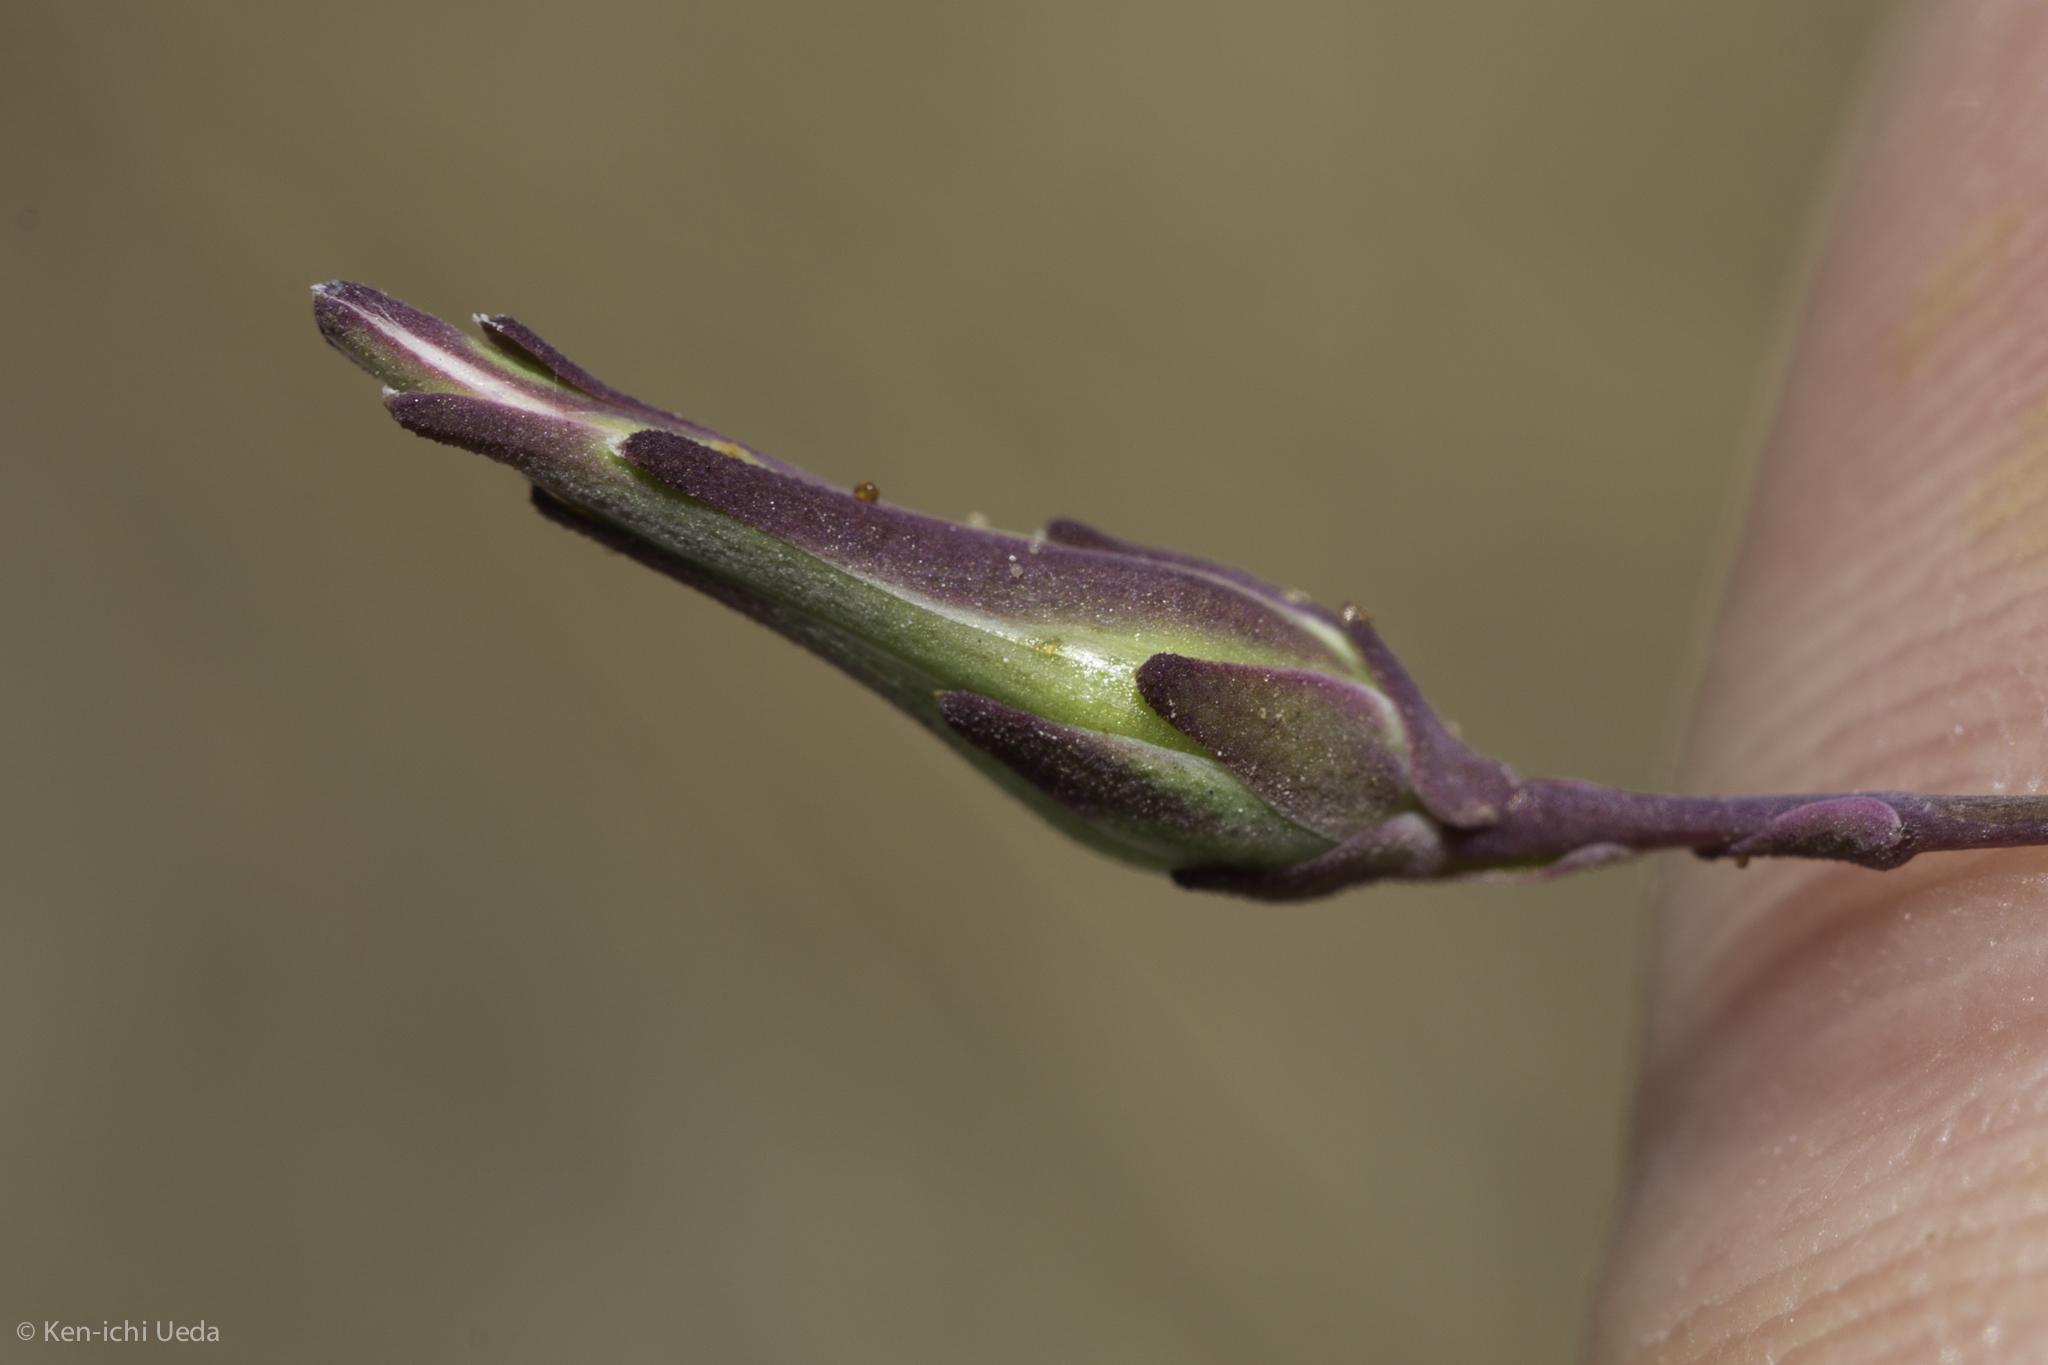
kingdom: Plantae
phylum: Tracheophyta
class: Magnoliopsida
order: Asterales
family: Asteraceae
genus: Lactuca
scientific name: Lactuca serriola
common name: Prickly lettuce
